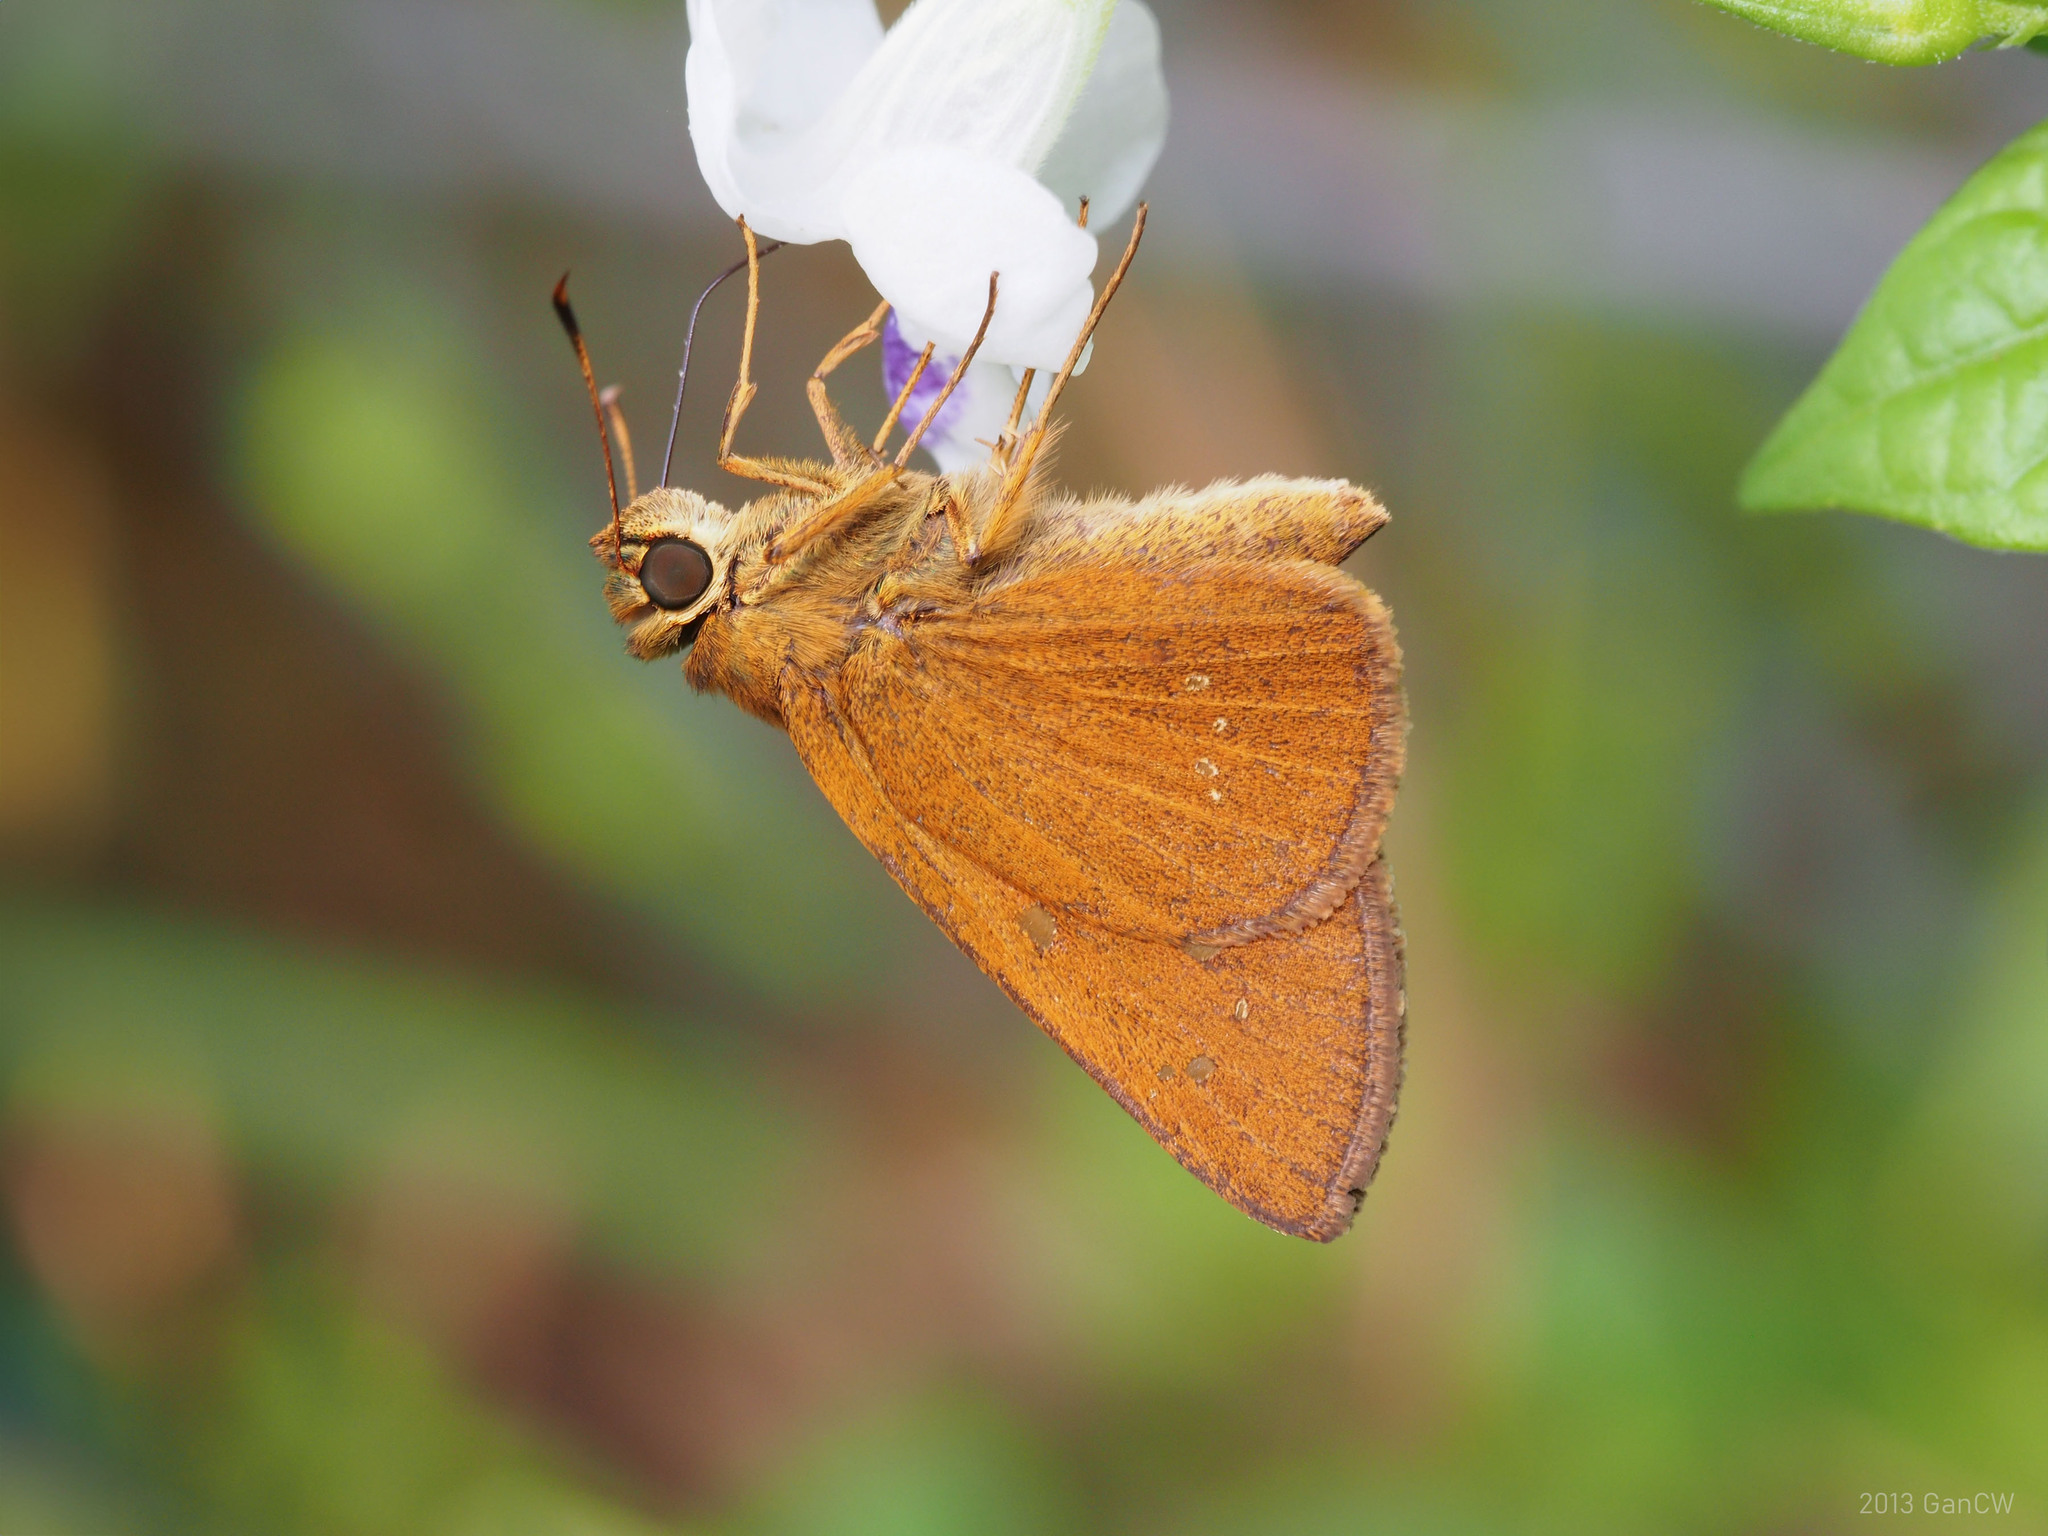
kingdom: Animalia
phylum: Arthropoda
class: Insecta
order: Lepidoptera
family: Hesperiidae
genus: Polytremis
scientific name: Polytremis lubricans
